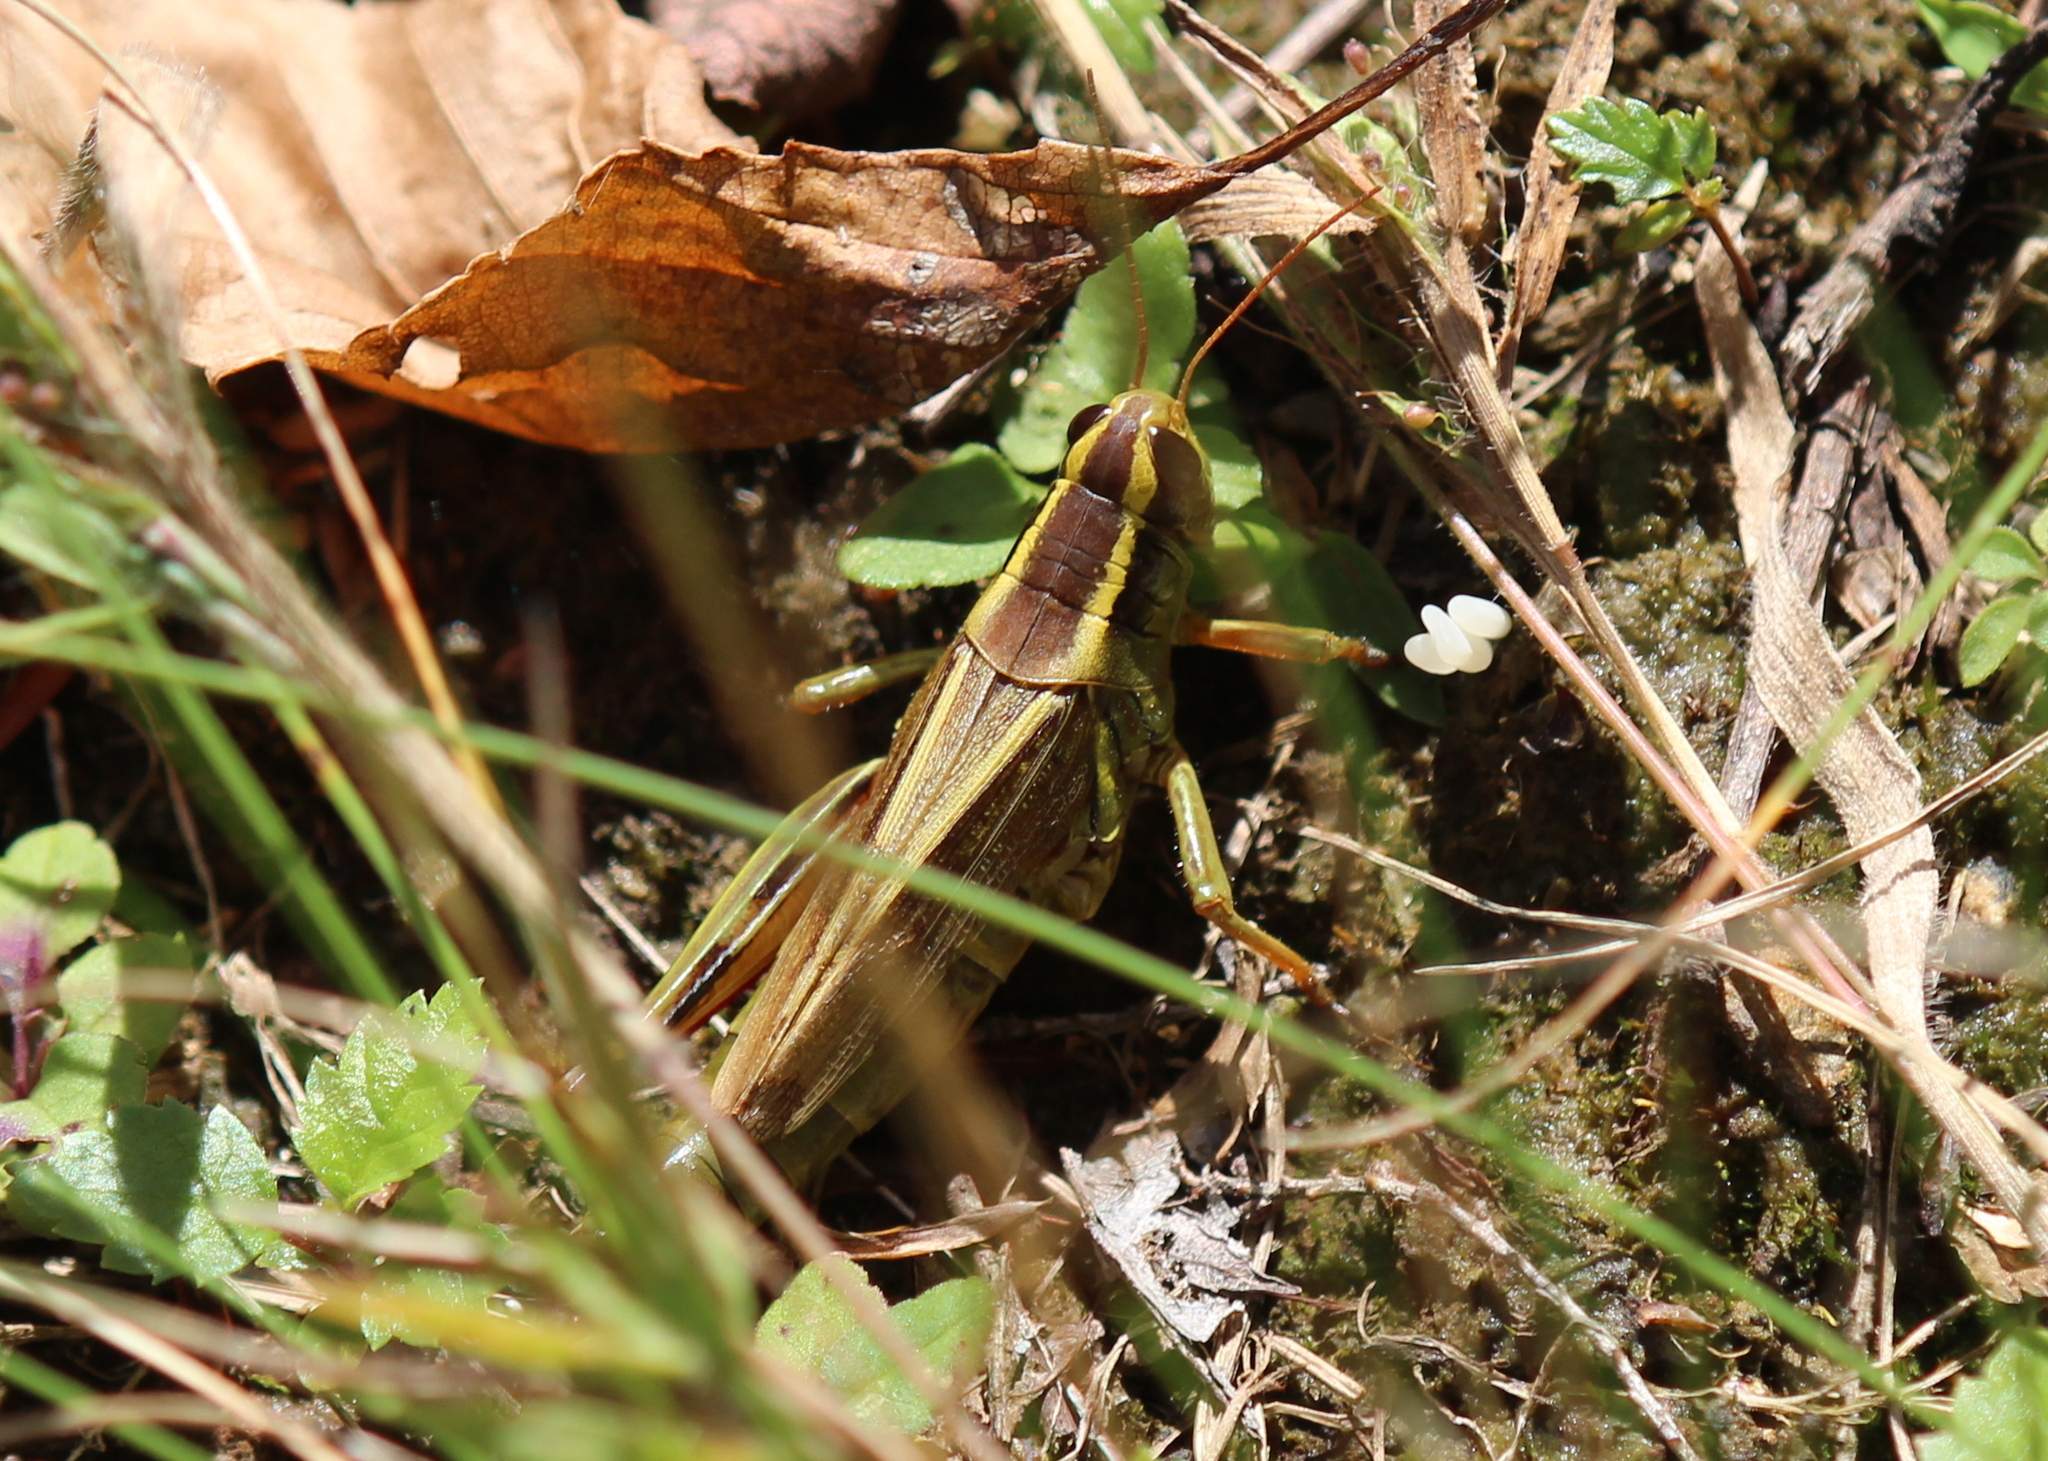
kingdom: Animalia
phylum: Arthropoda
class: Insecta
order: Orthoptera
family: Acrididae
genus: Melanoplus
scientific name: Melanoplus bivittatus
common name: Two-striped grasshopper
